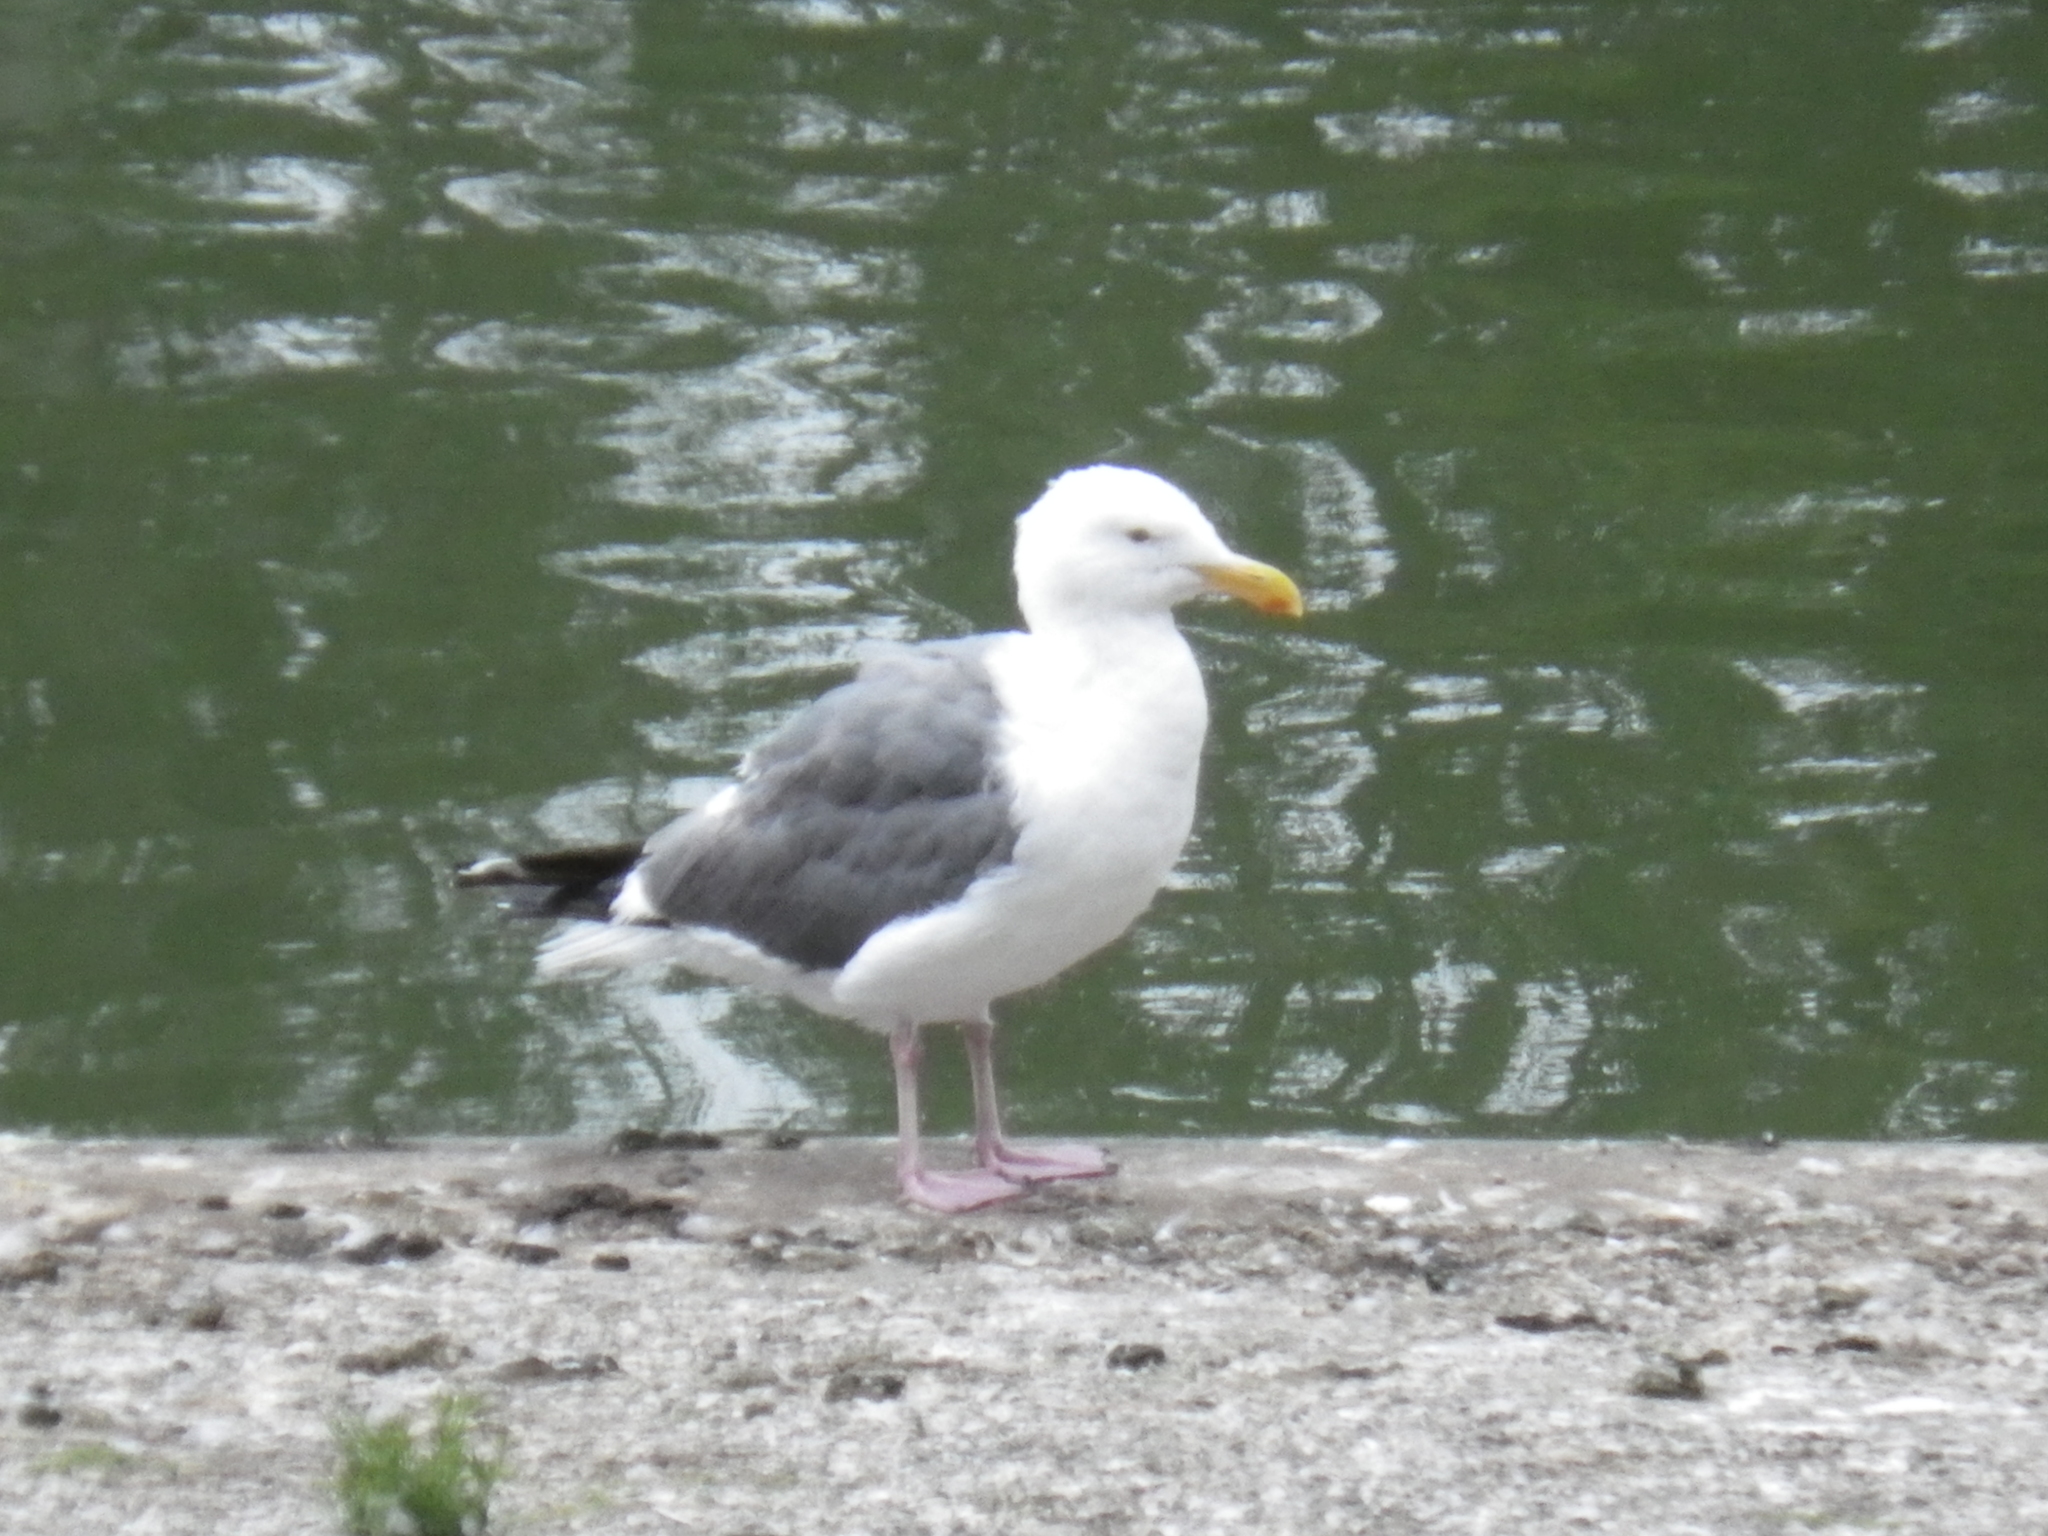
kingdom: Animalia
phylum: Chordata
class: Aves
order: Charadriiformes
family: Laridae
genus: Larus
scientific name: Larus occidentalis
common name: Western gull
